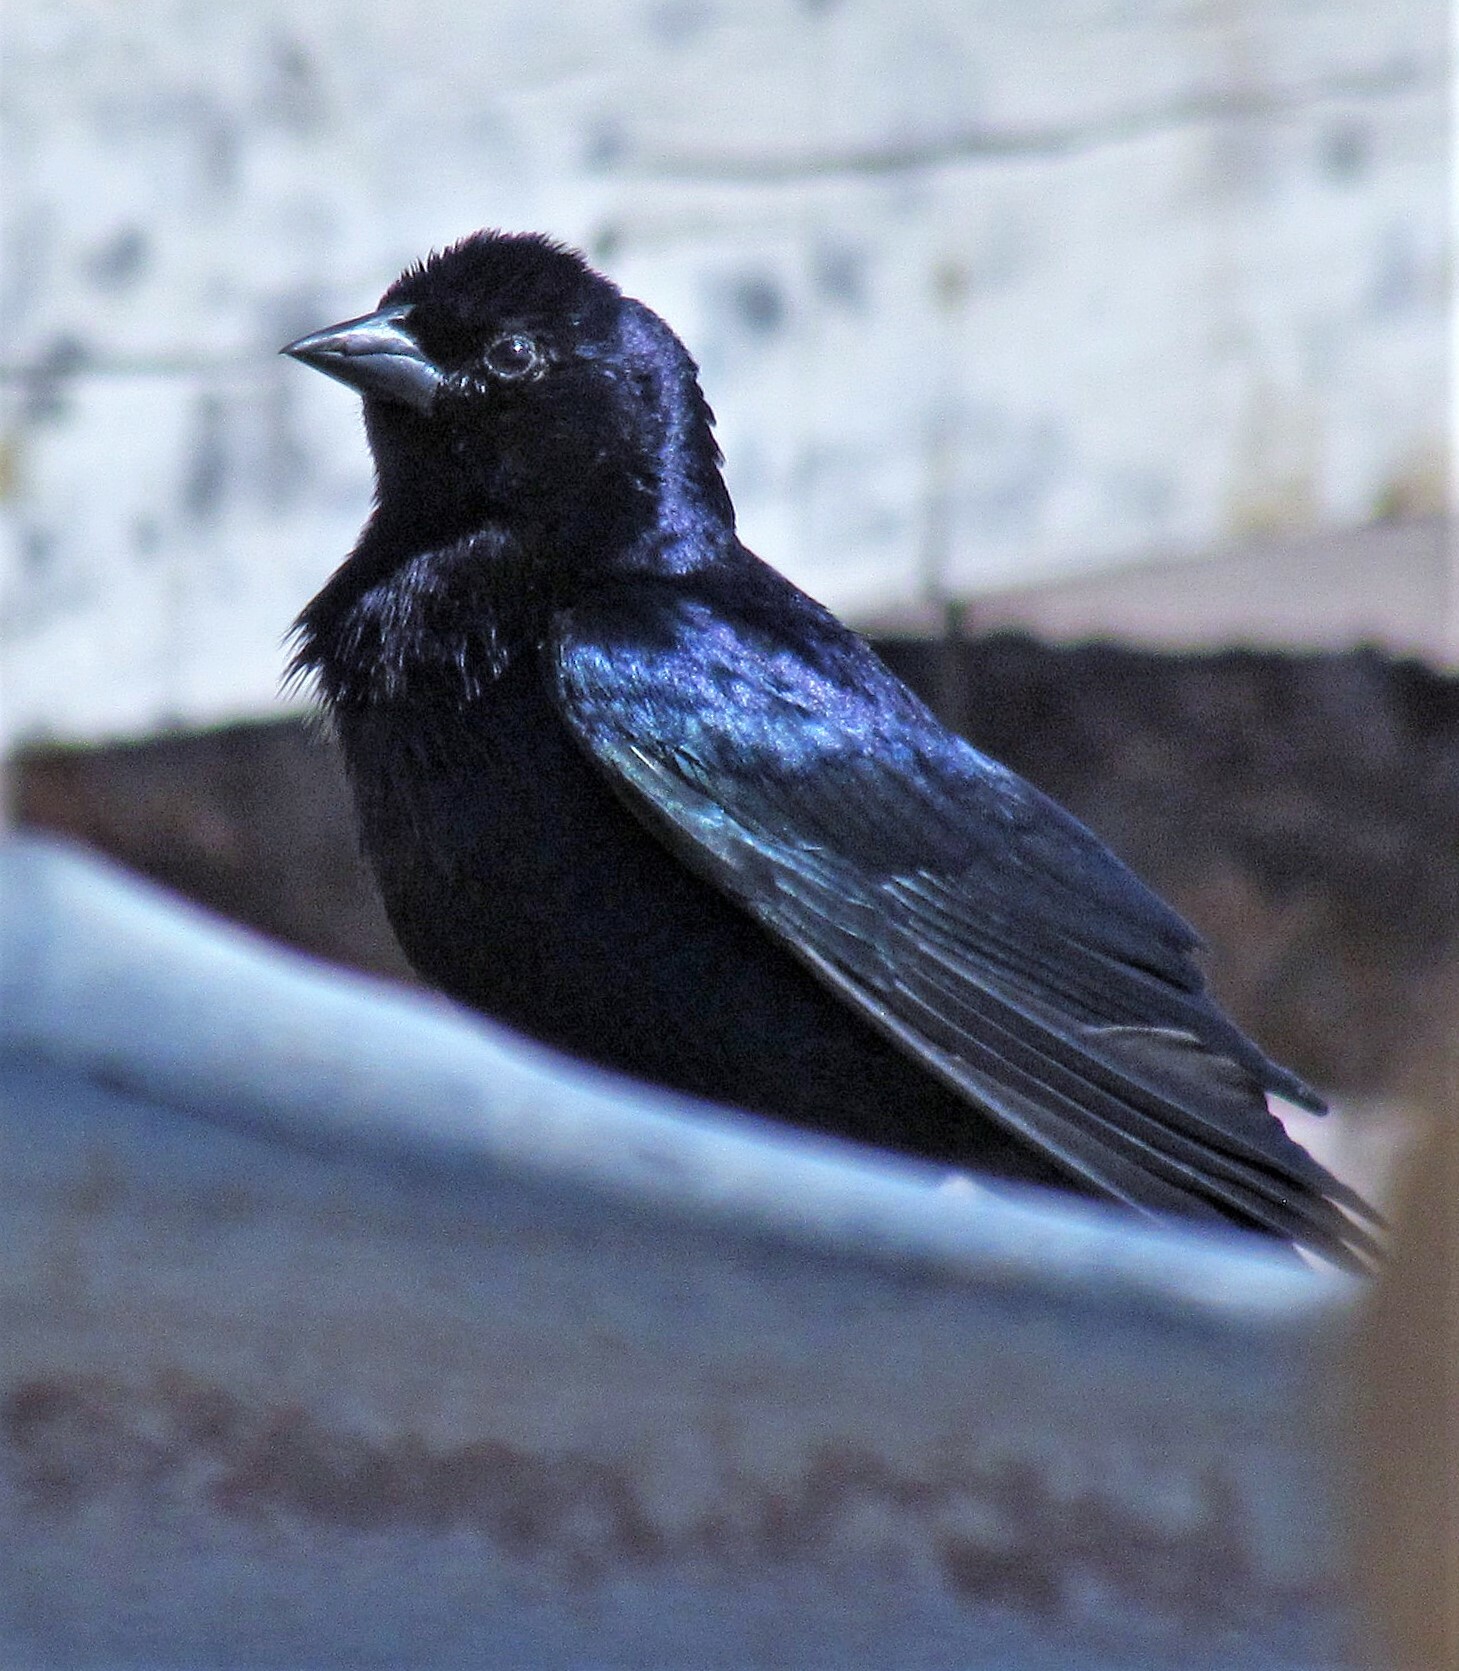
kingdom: Animalia
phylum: Chordata
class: Aves
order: Passeriformes
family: Icteridae
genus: Molothrus
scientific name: Molothrus bonariensis
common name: Shiny cowbird
